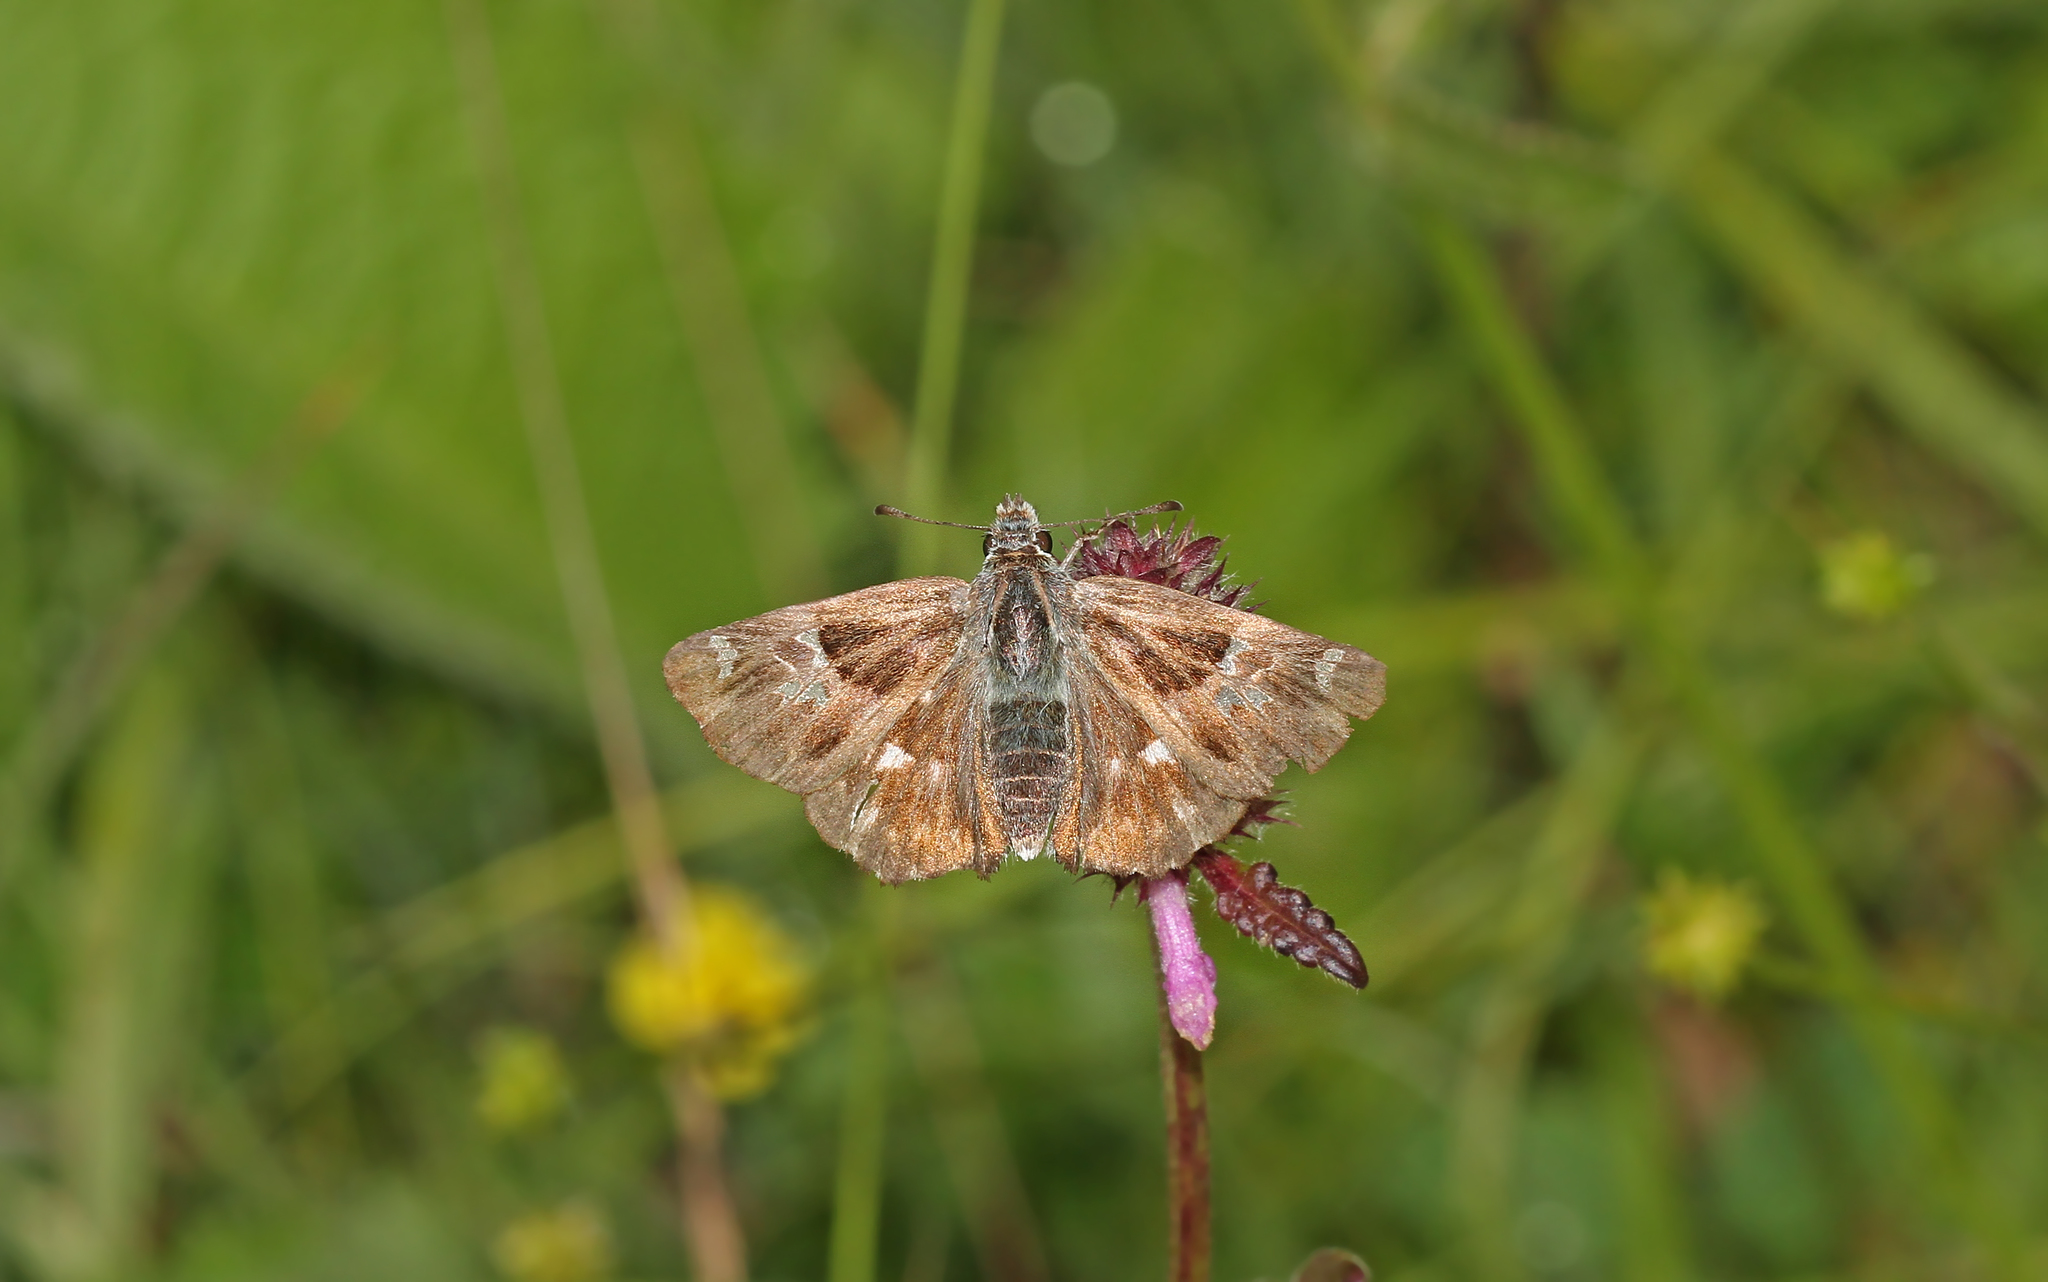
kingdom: Animalia
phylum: Arthropoda
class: Insecta
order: Lepidoptera
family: Hesperiidae
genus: Carcharodus
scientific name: Carcharodus floccifera
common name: Tufted marbled skipper
